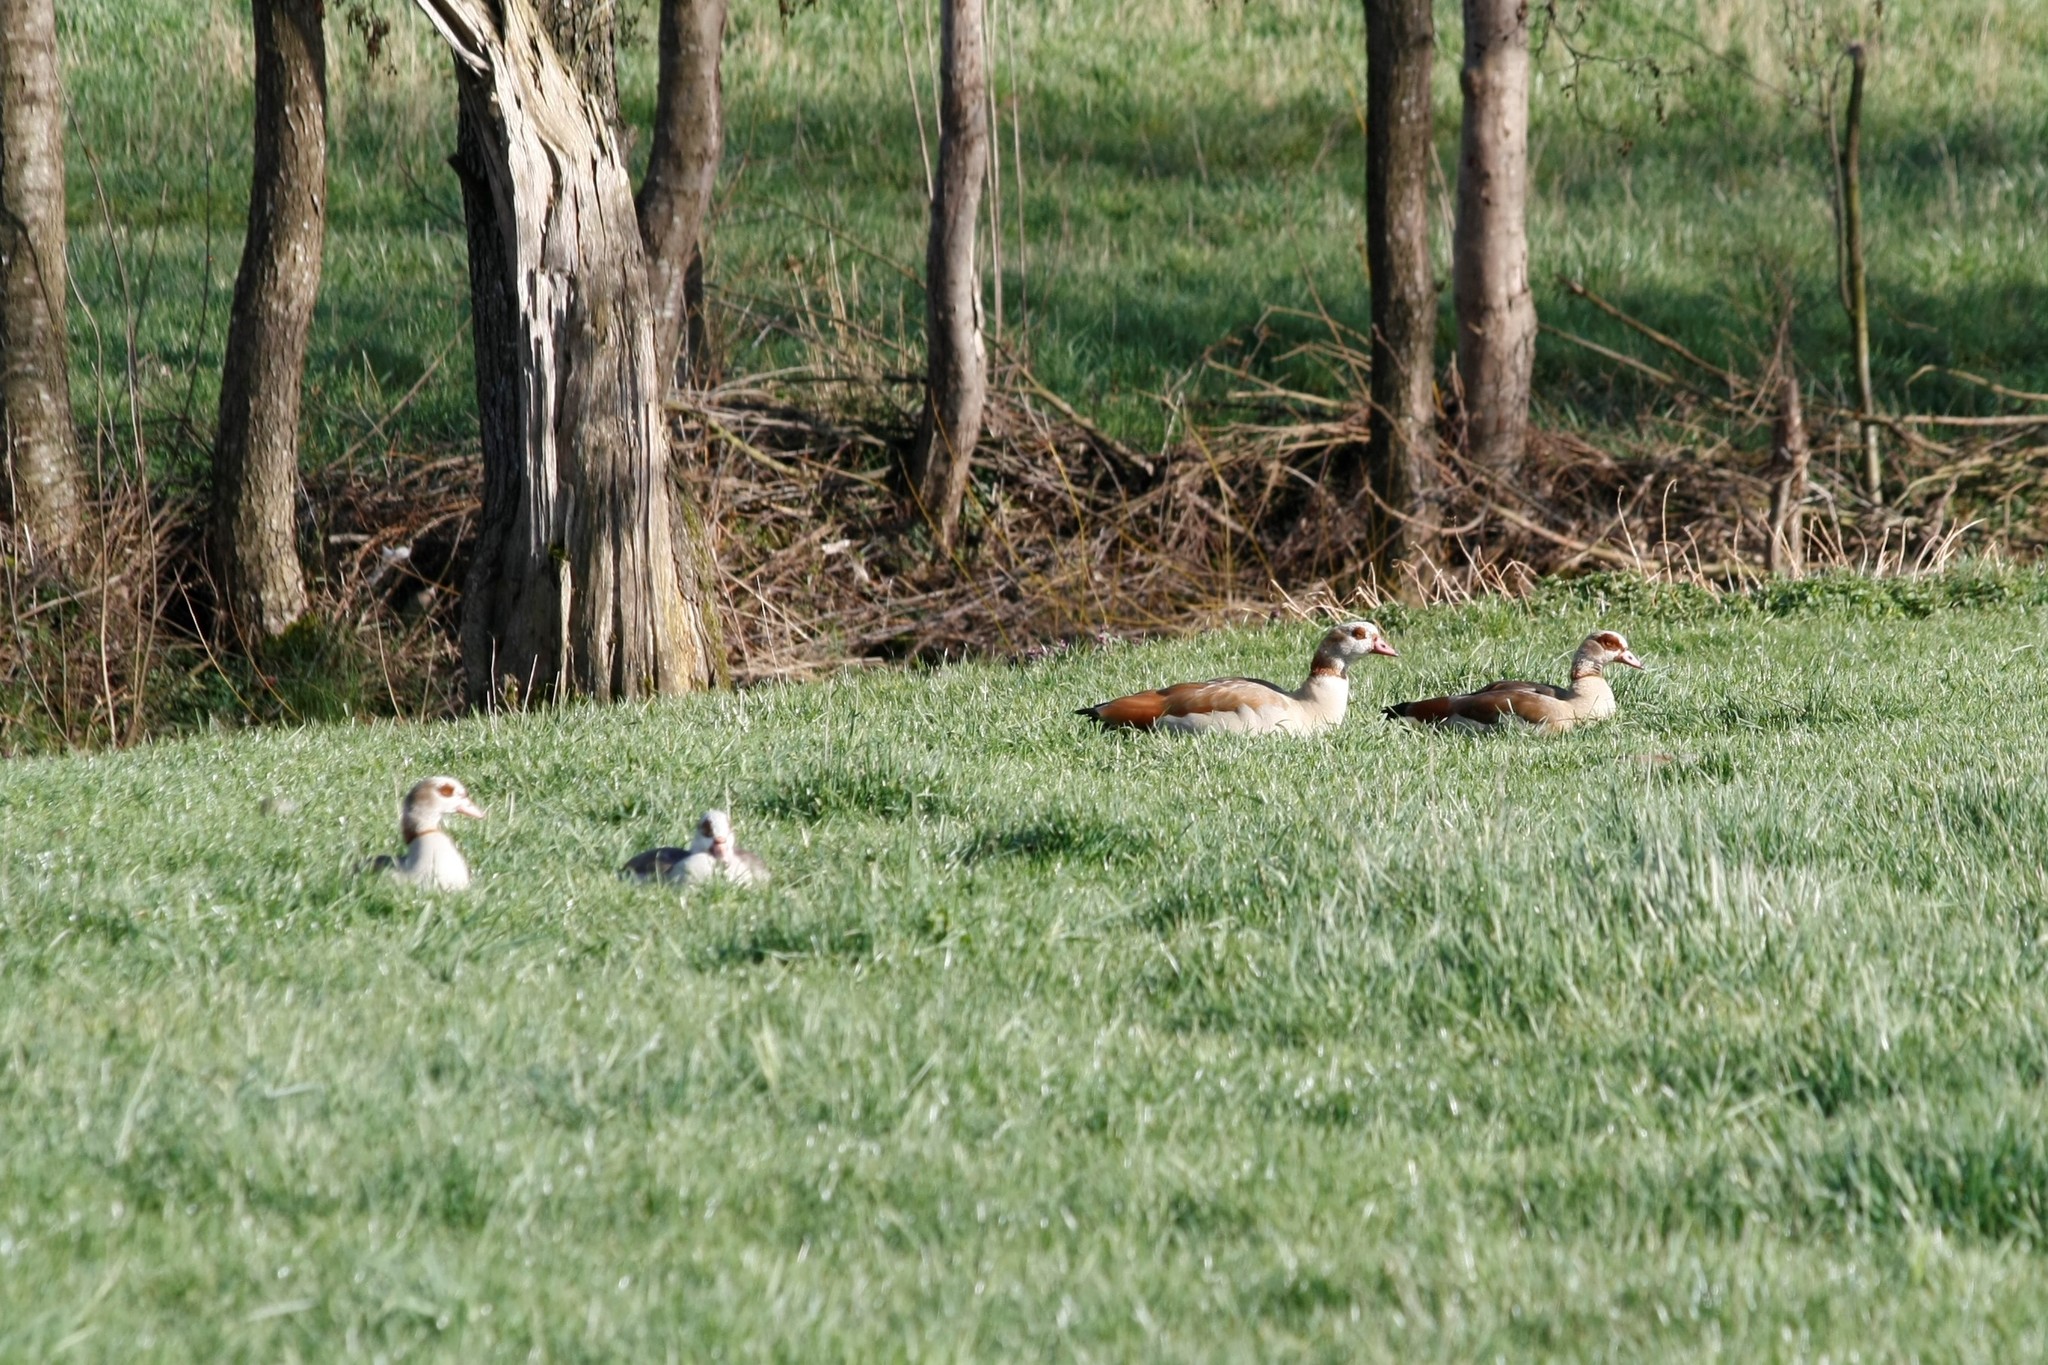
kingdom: Animalia
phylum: Chordata
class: Aves
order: Anseriformes
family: Anatidae
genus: Alopochen
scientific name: Alopochen aegyptiaca
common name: Egyptian goose
